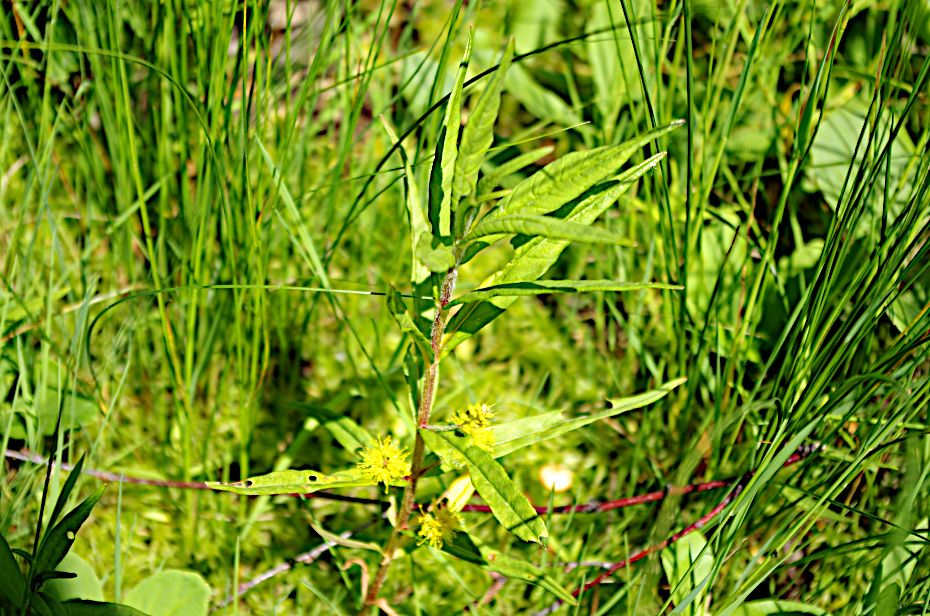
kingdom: Plantae
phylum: Tracheophyta
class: Magnoliopsida
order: Ericales
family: Primulaceae
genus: Lysimachia
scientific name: Lysimachia thyrsiflora
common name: Tufted loosestrife
